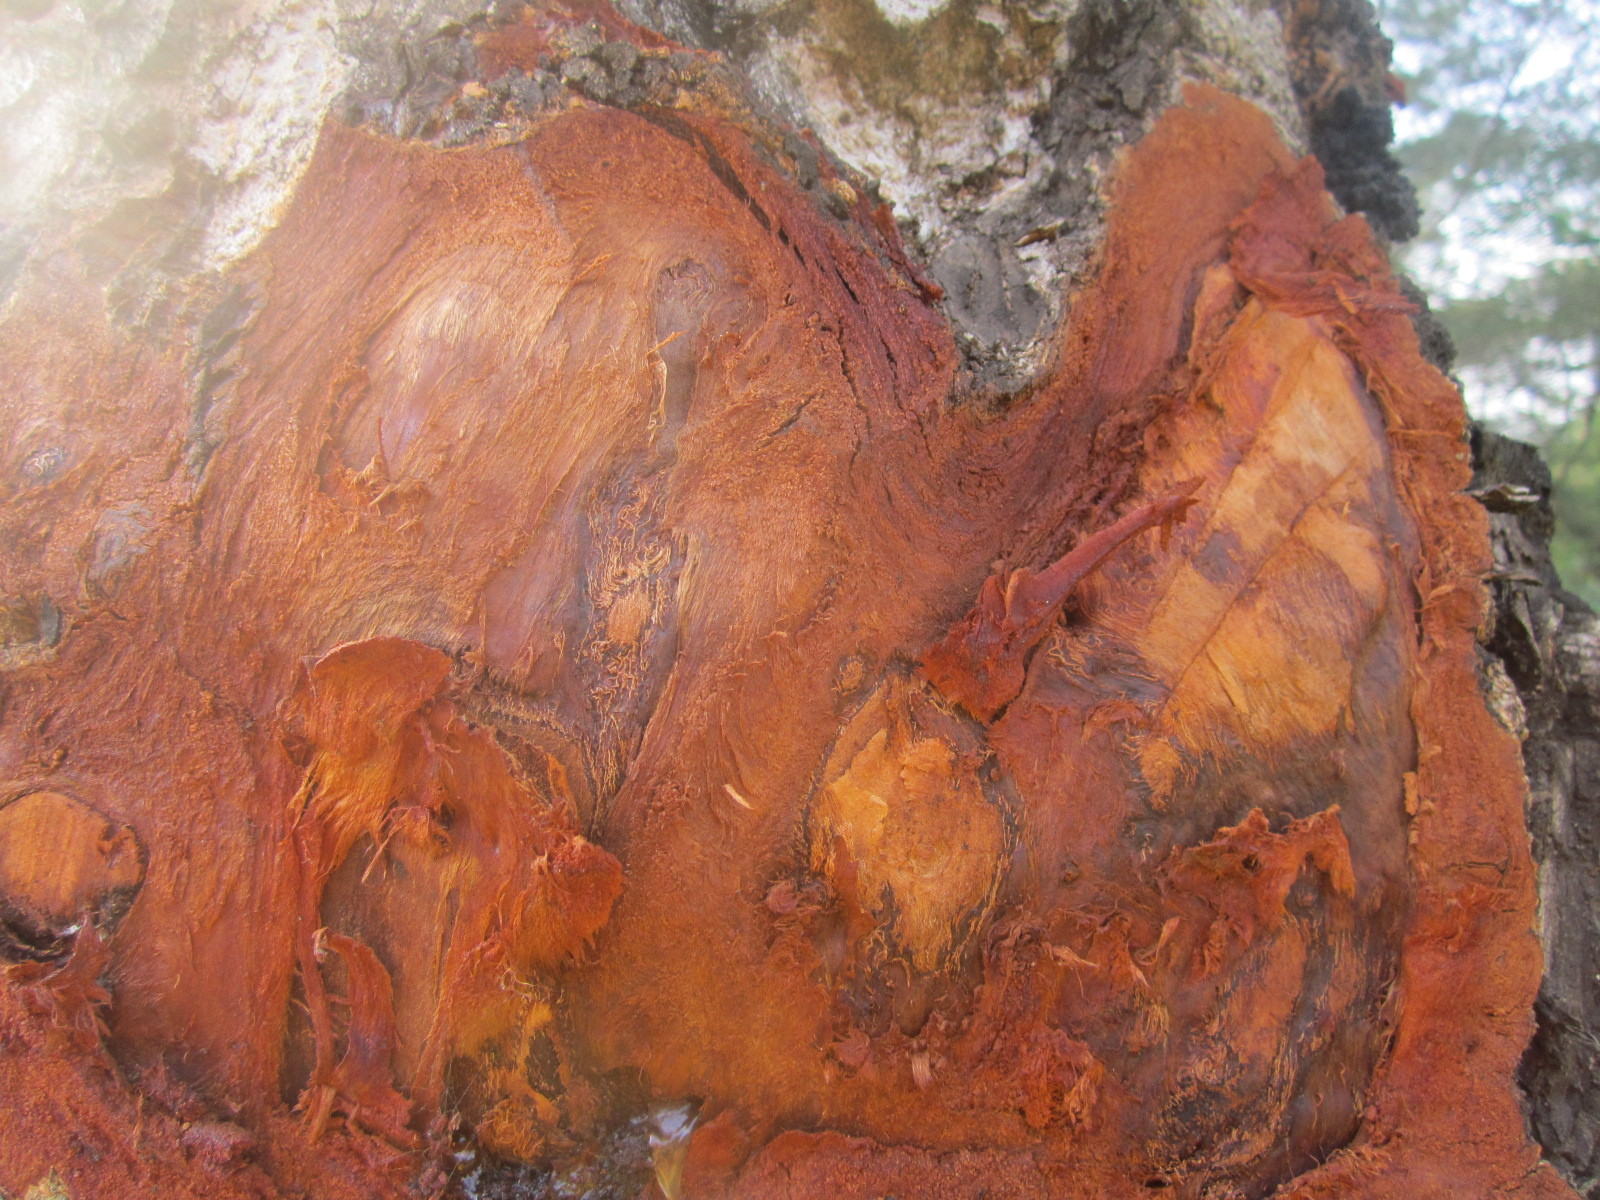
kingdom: Plantae
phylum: Tracheophyta
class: Magnoliopsida
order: Sapindales
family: Meliaceae
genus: Khaya
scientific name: Khaya senegalensis
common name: Senegal mahogany
